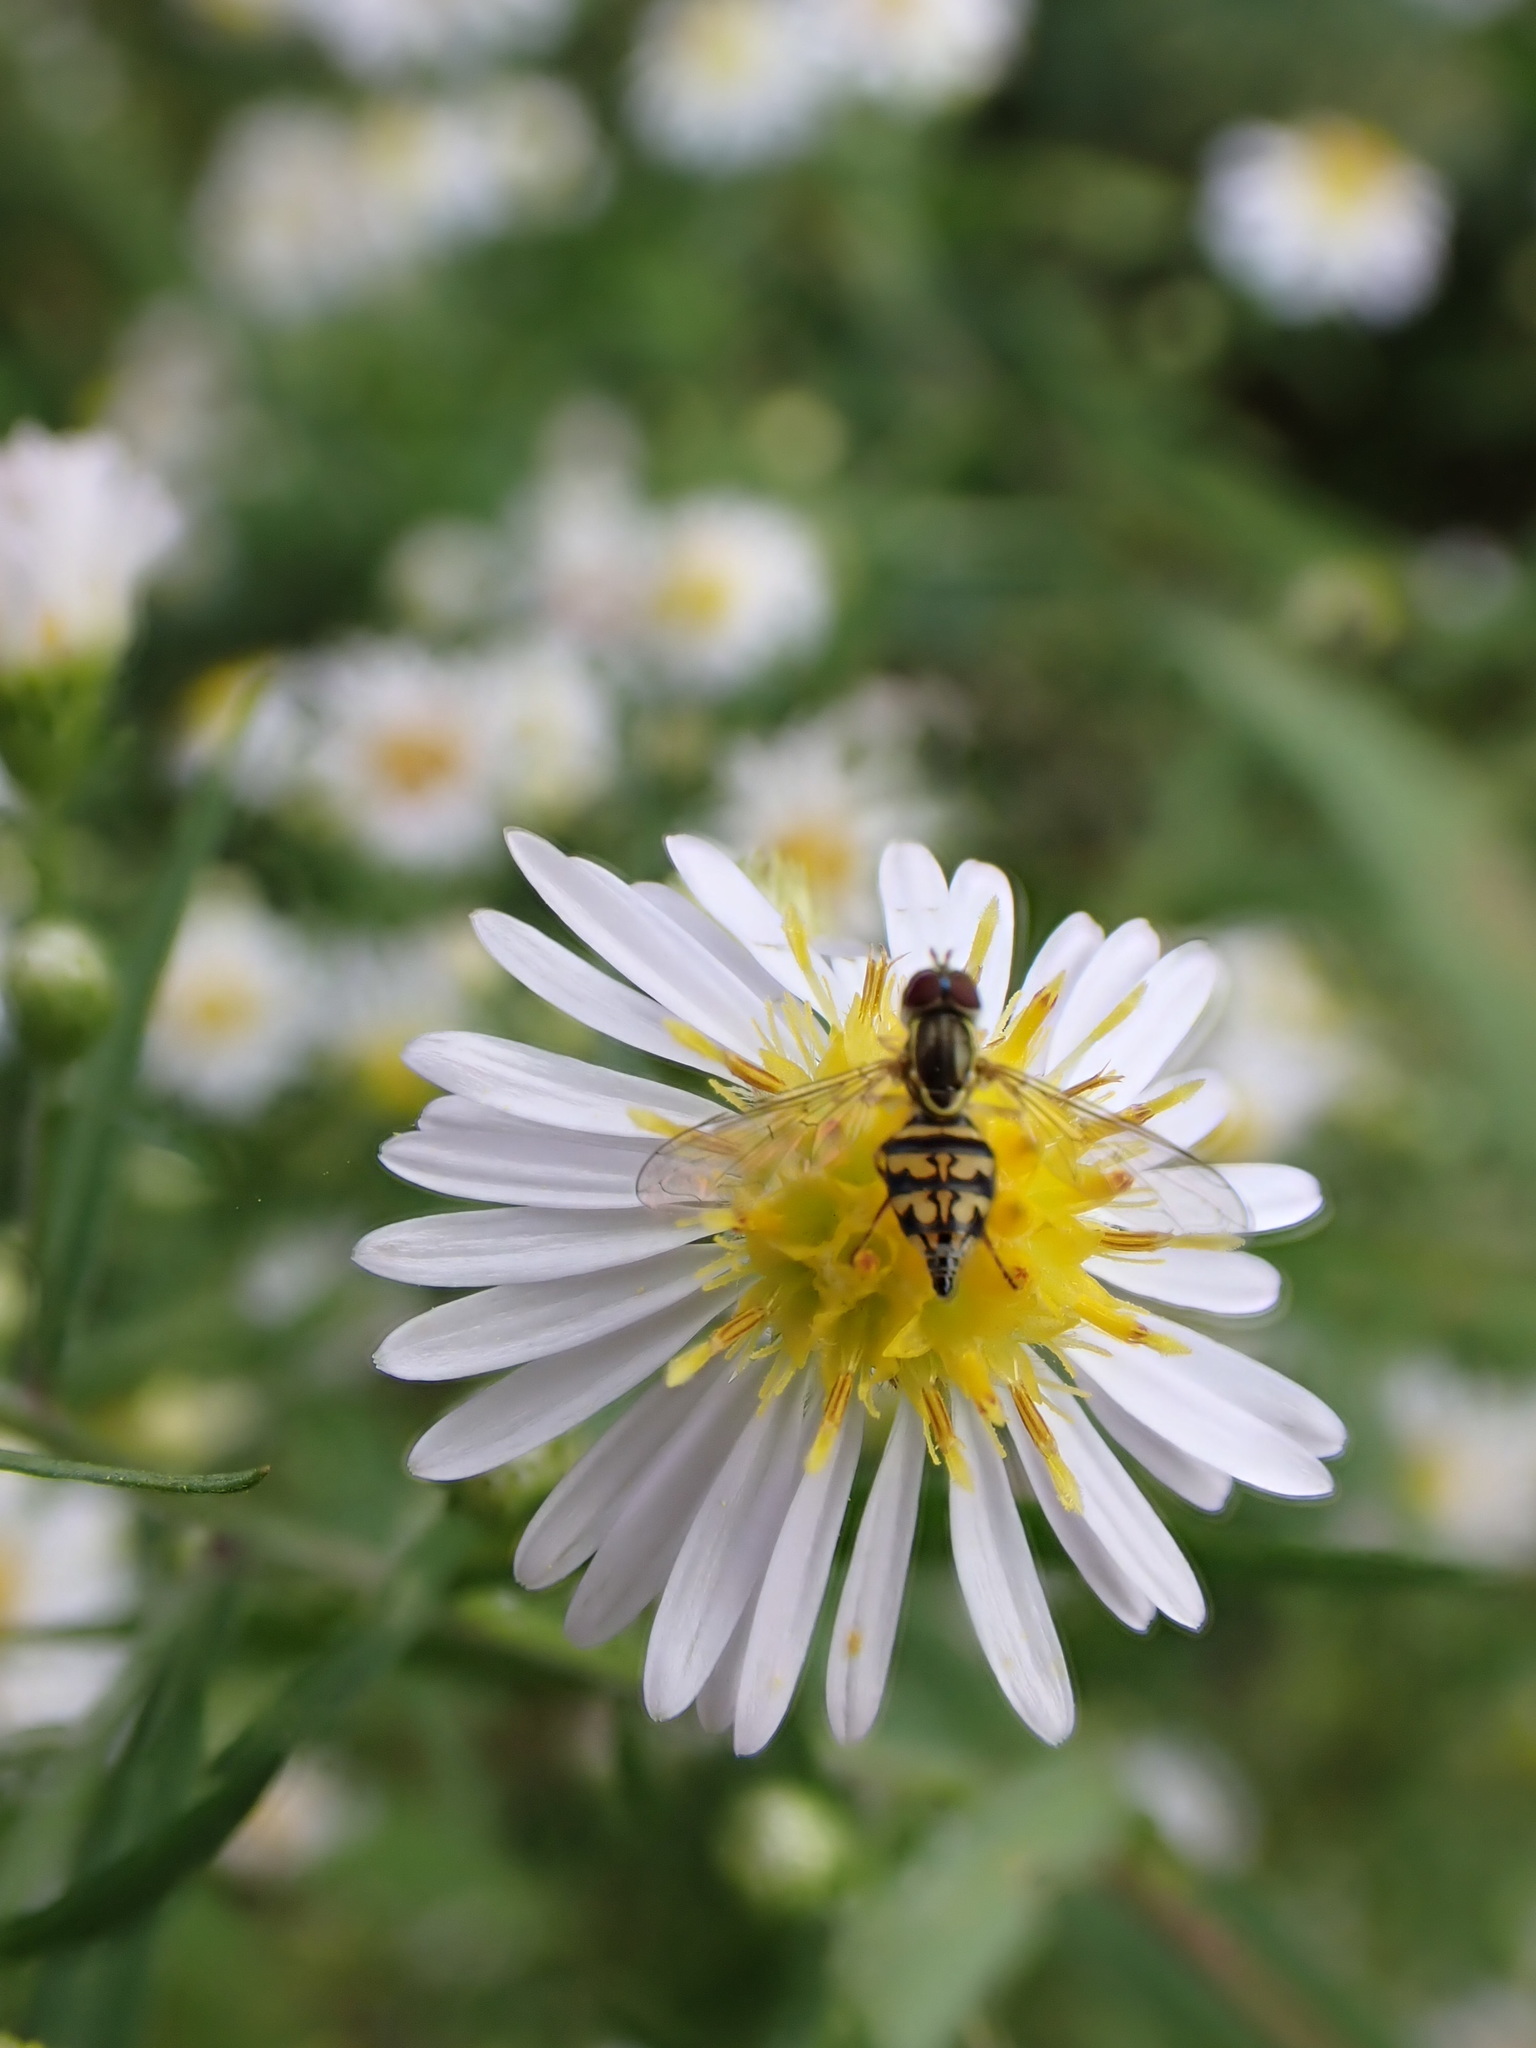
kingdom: Animalia
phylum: Arthropoda
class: Insecta
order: Diptera
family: Syrphidae
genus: Toxomerus
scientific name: Toxomerus geminatus
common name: Eastern calligrapher
